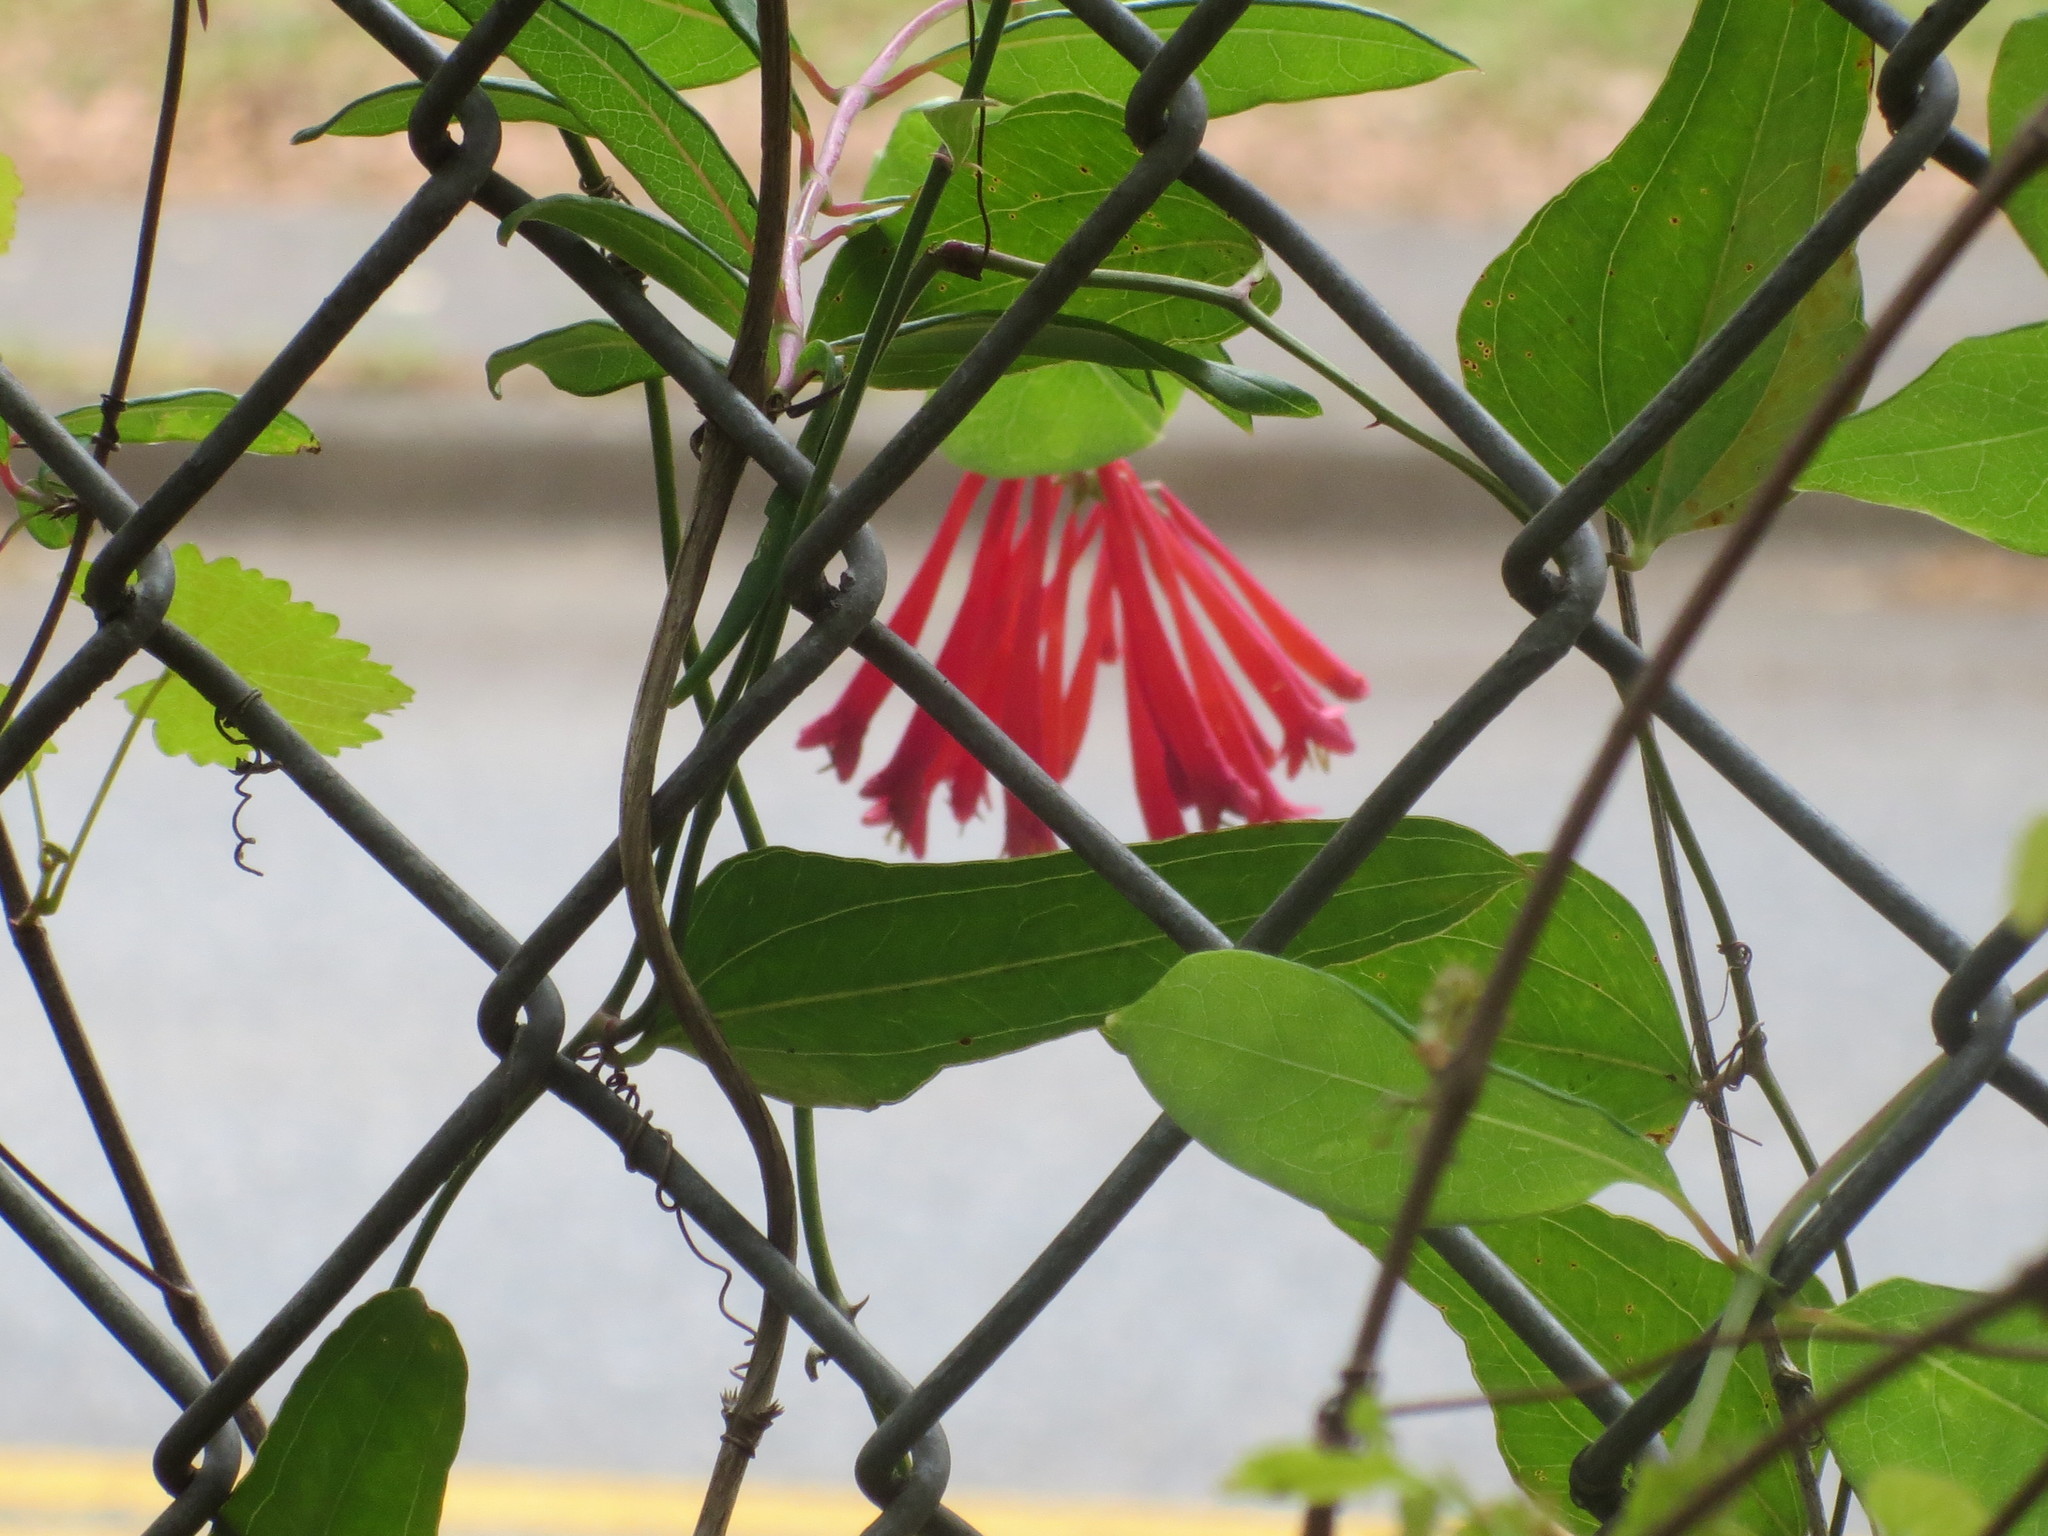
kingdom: Plantae
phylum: Tracheophyta
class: Magnoliopsida
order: Dipsacales
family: Caprifoliaceae
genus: Lonicera
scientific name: Lonicera sempervirens
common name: Coral honeysuckle
